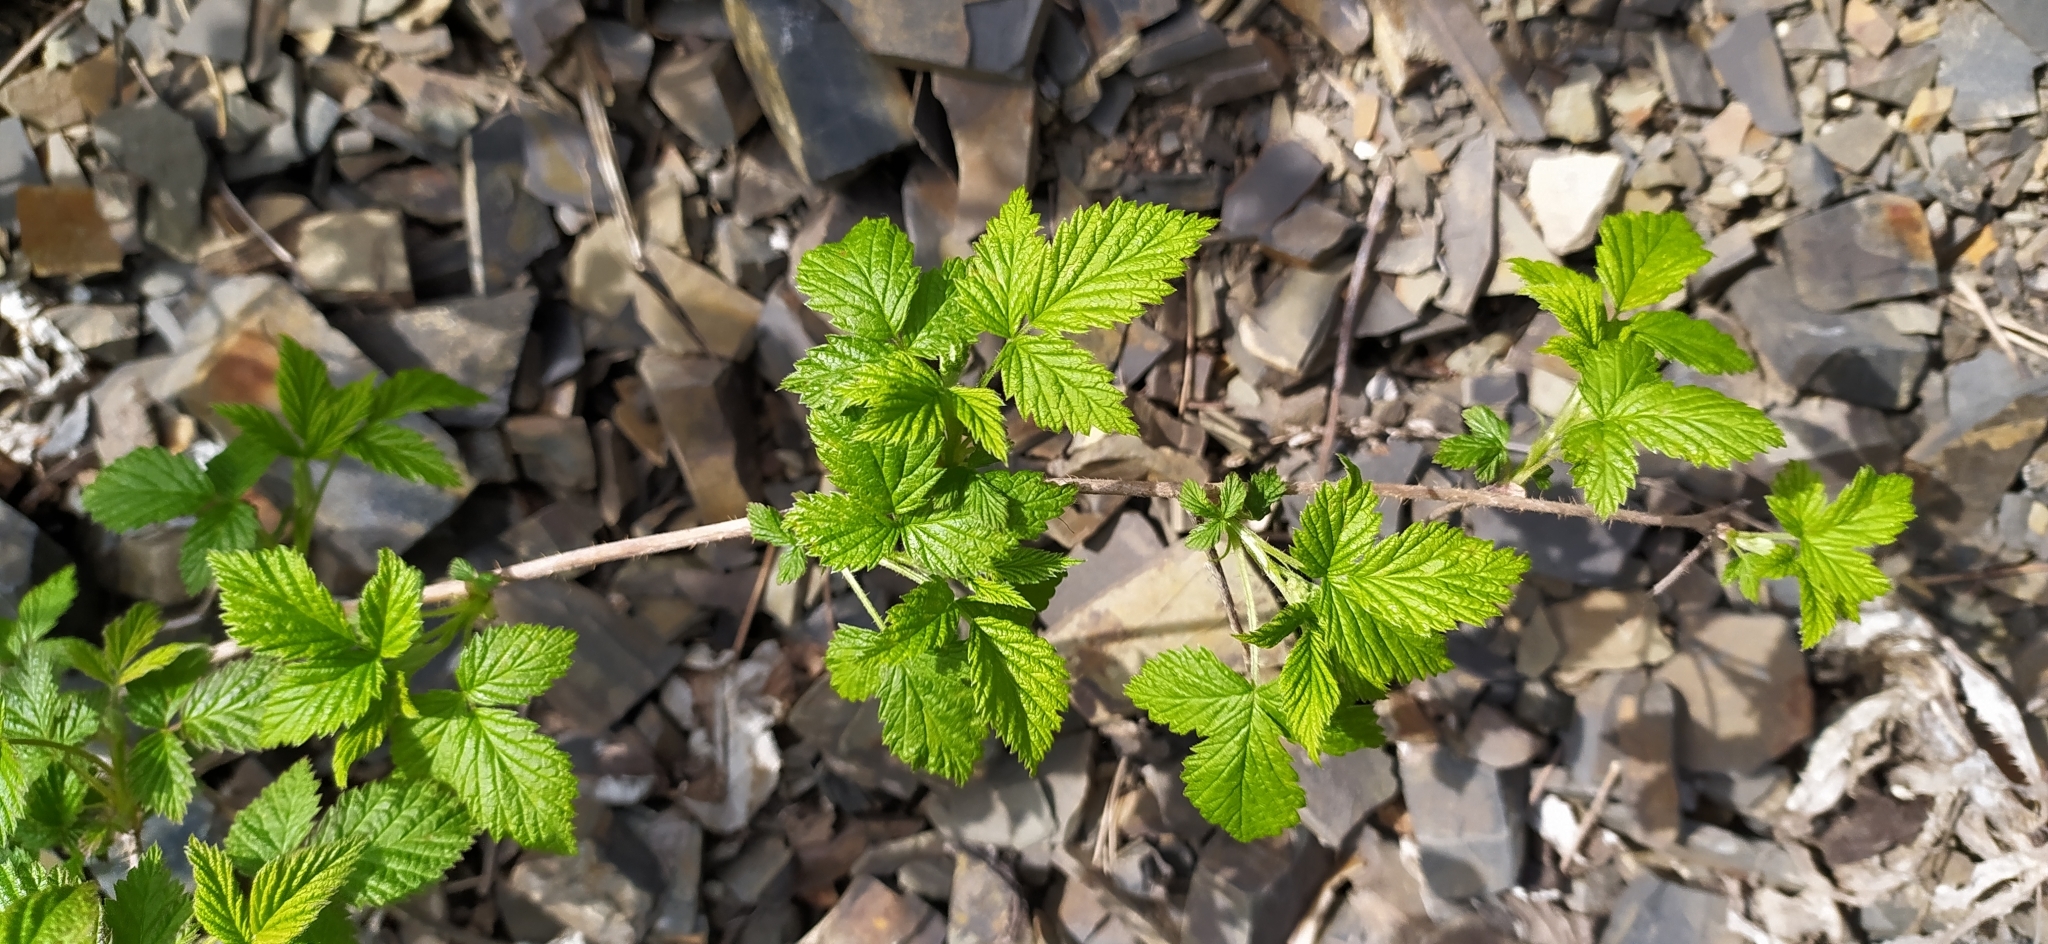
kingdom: Plantae
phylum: Tracheophyta
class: Magnoliopsida
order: Rosales
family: Rosaceae
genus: Rubus
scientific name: Rubus idaeus
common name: Raspberry
